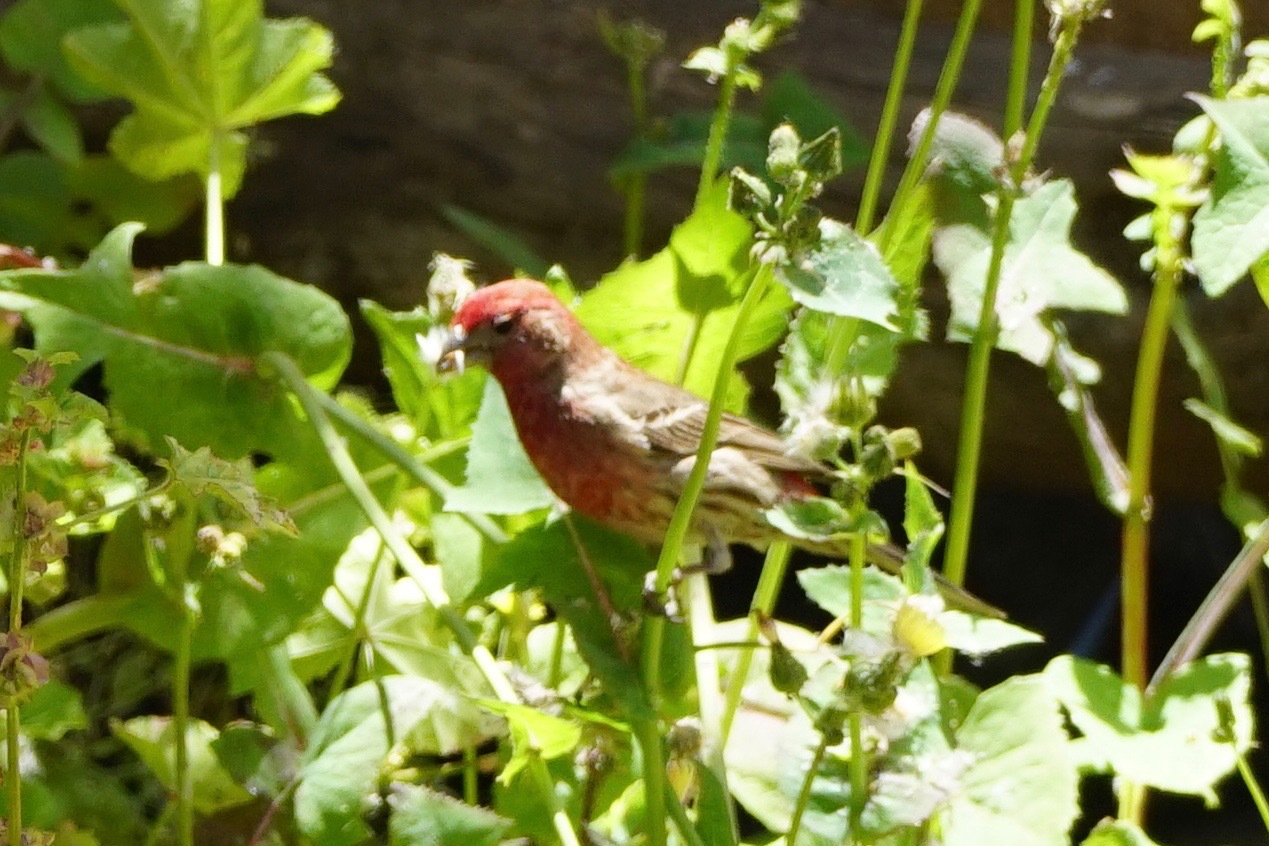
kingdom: Animalia
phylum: Chordata
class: Aves
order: Passeriformes
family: Fringillidae
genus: Haemorhous
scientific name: Haemorhous mexicanus
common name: House finch
